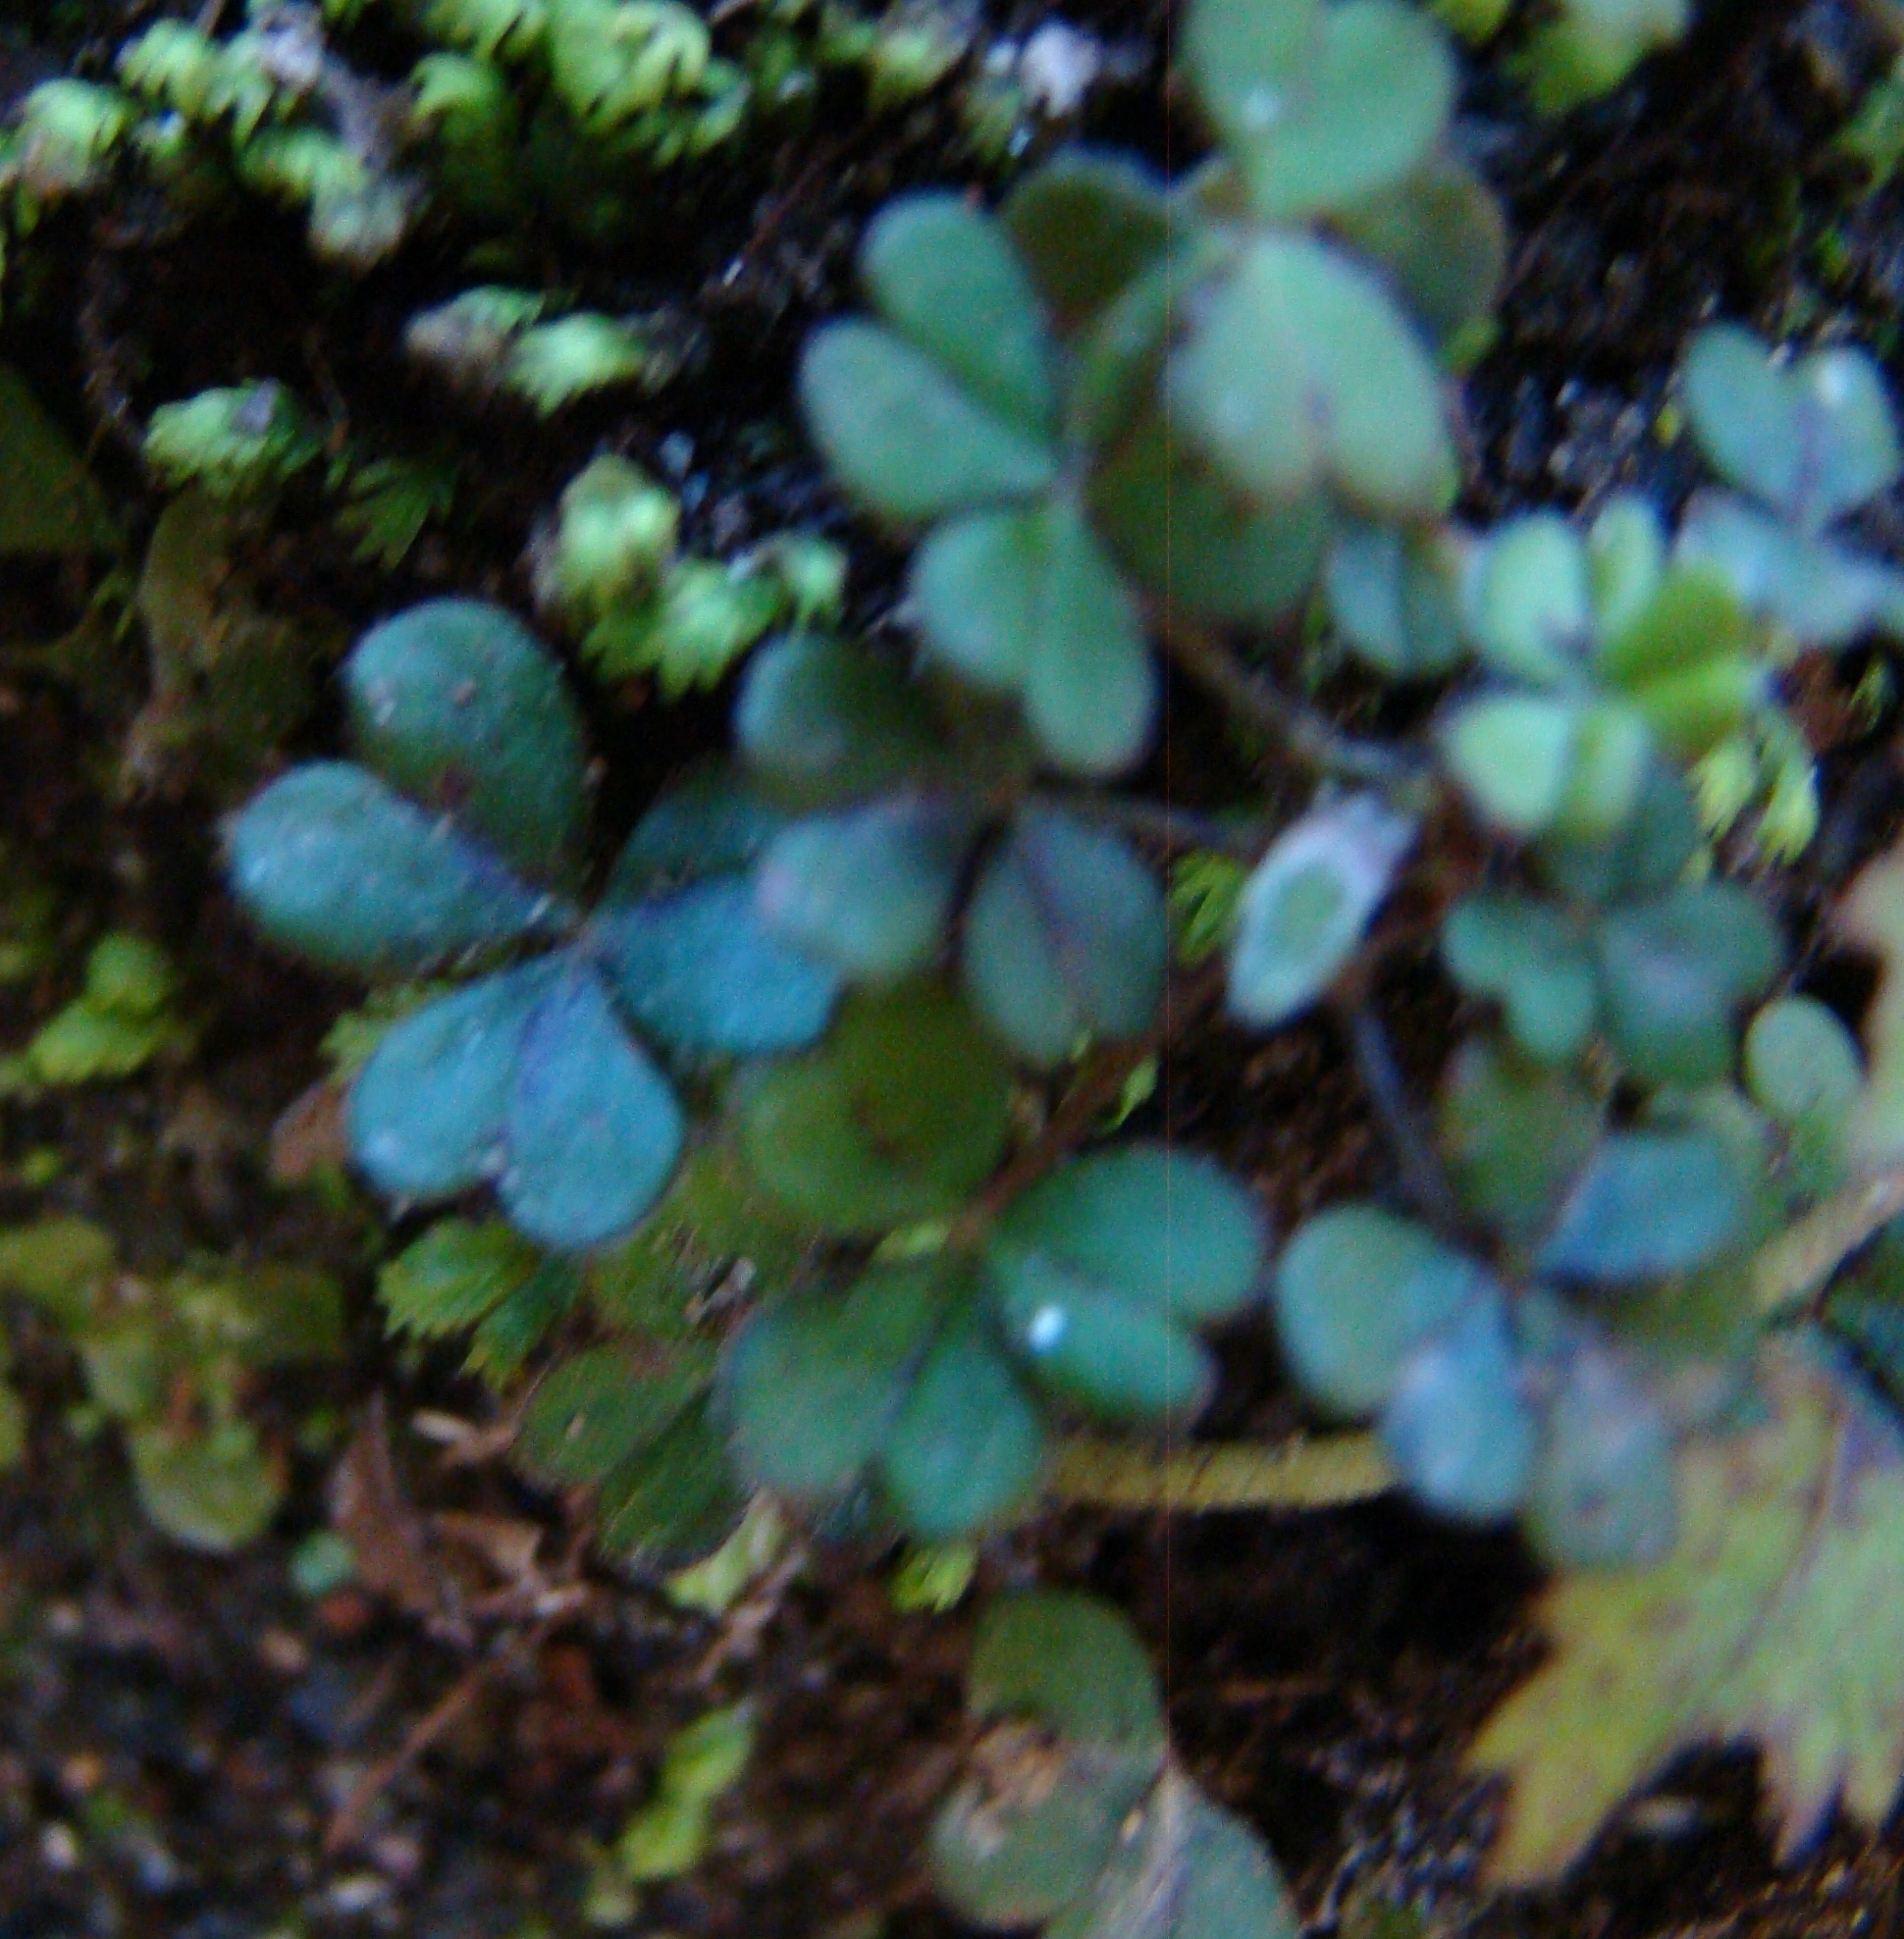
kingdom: Plantae
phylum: Tracheophyta
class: Magnoliopsida
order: Oxalidales
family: Oxalidaceae
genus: Oxalis
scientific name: Oxalis magellanica
